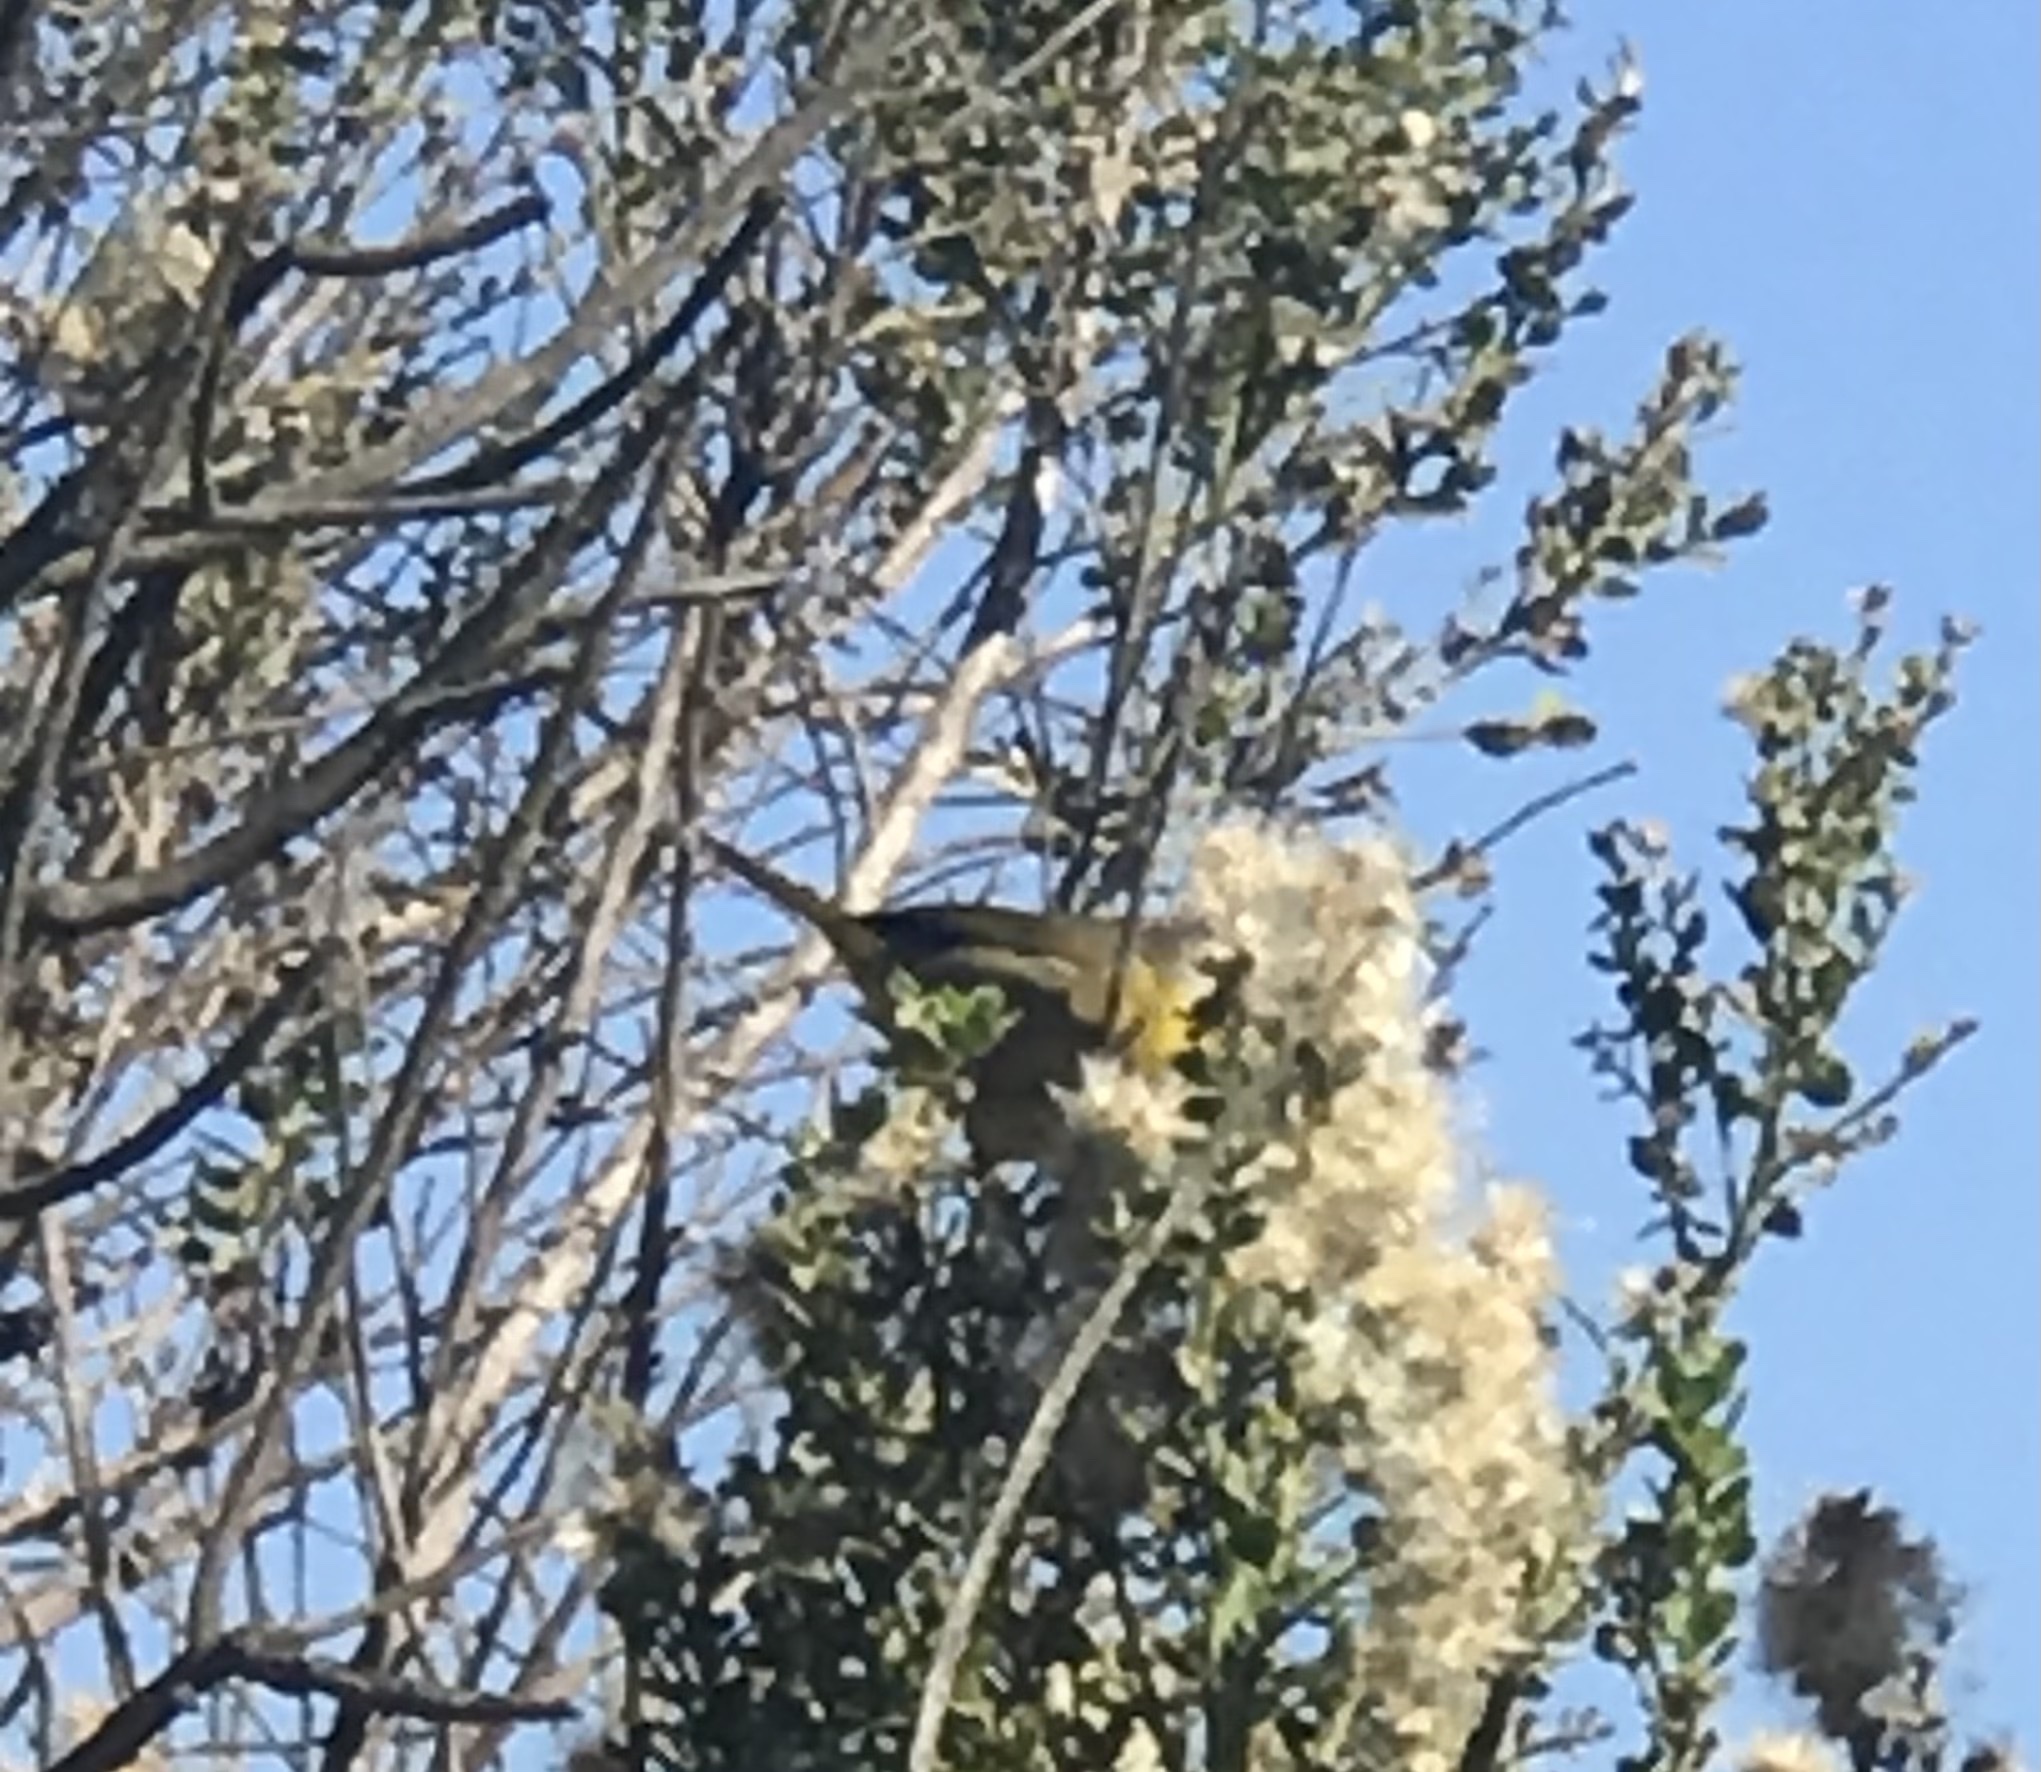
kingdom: Animalia
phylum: Chordata
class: Aves
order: Passeriformes
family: Parulidae
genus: Geothlypis
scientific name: Geothlypis trichas
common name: Common yellowthroat
